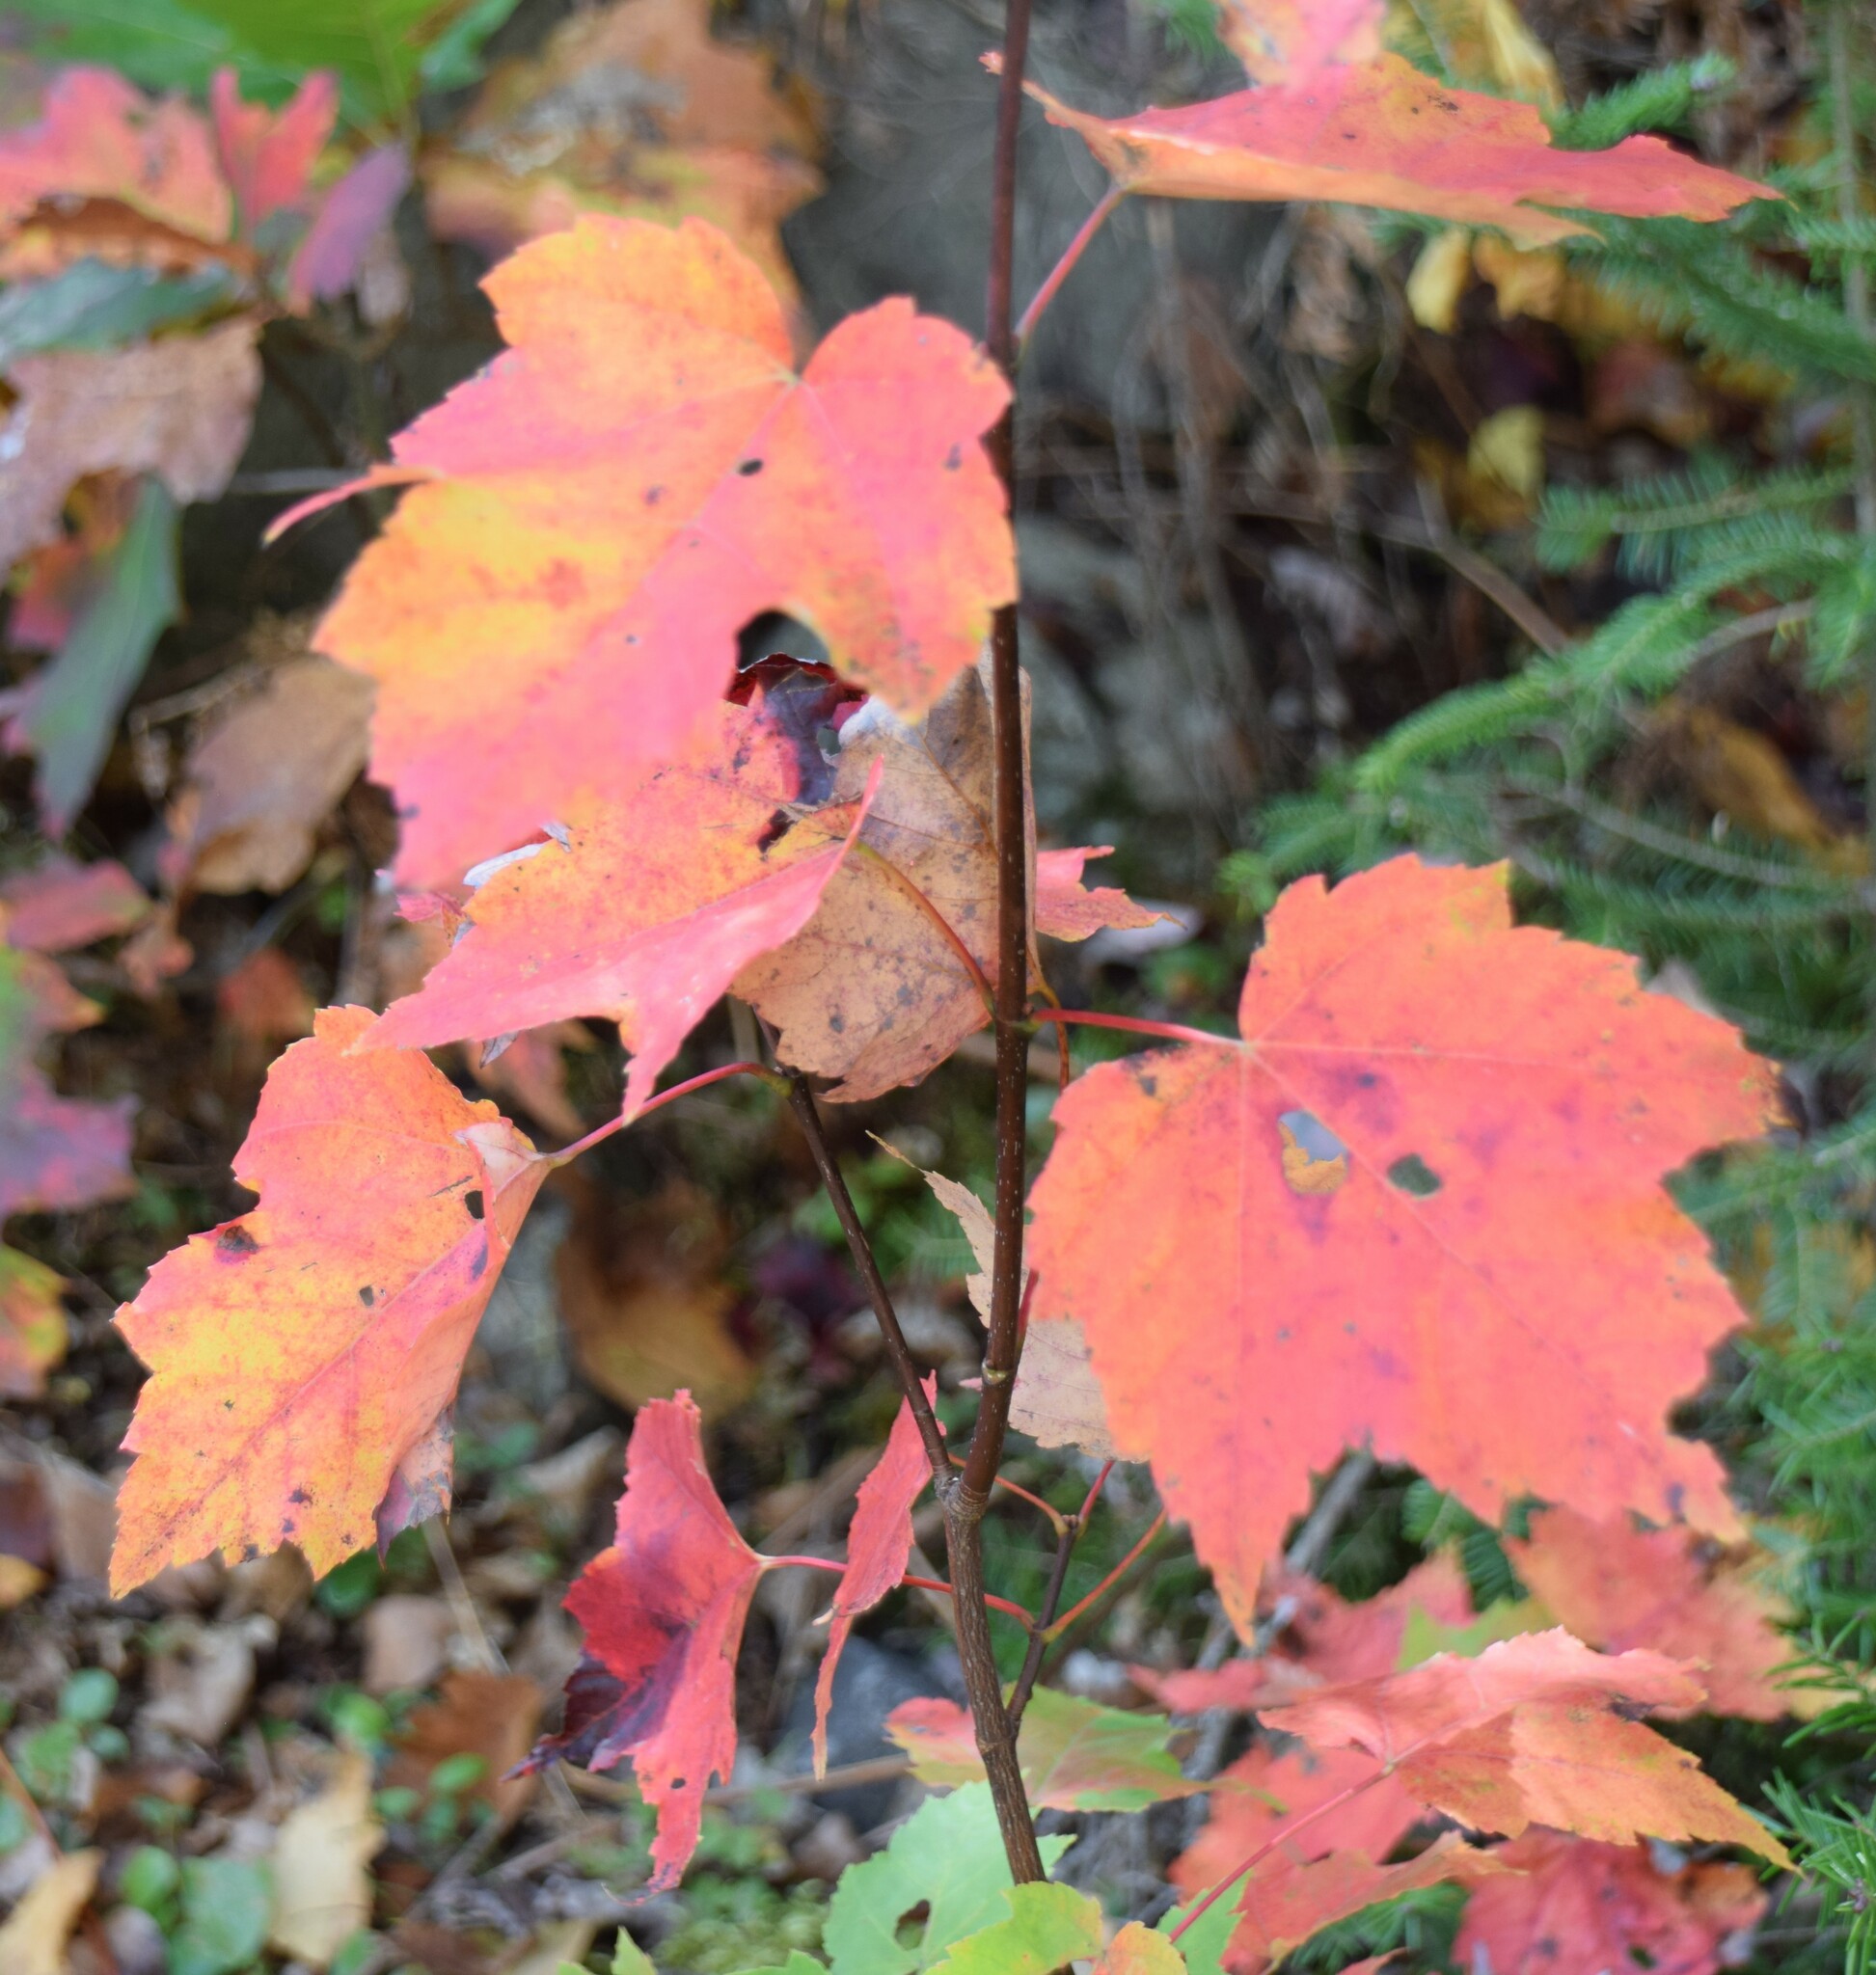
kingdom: Plantae
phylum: Tracheophyta
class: Magnoliopsida
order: Sapindales
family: Sapindaceae
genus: Acer
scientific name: Acer rubrum
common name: Red maple
